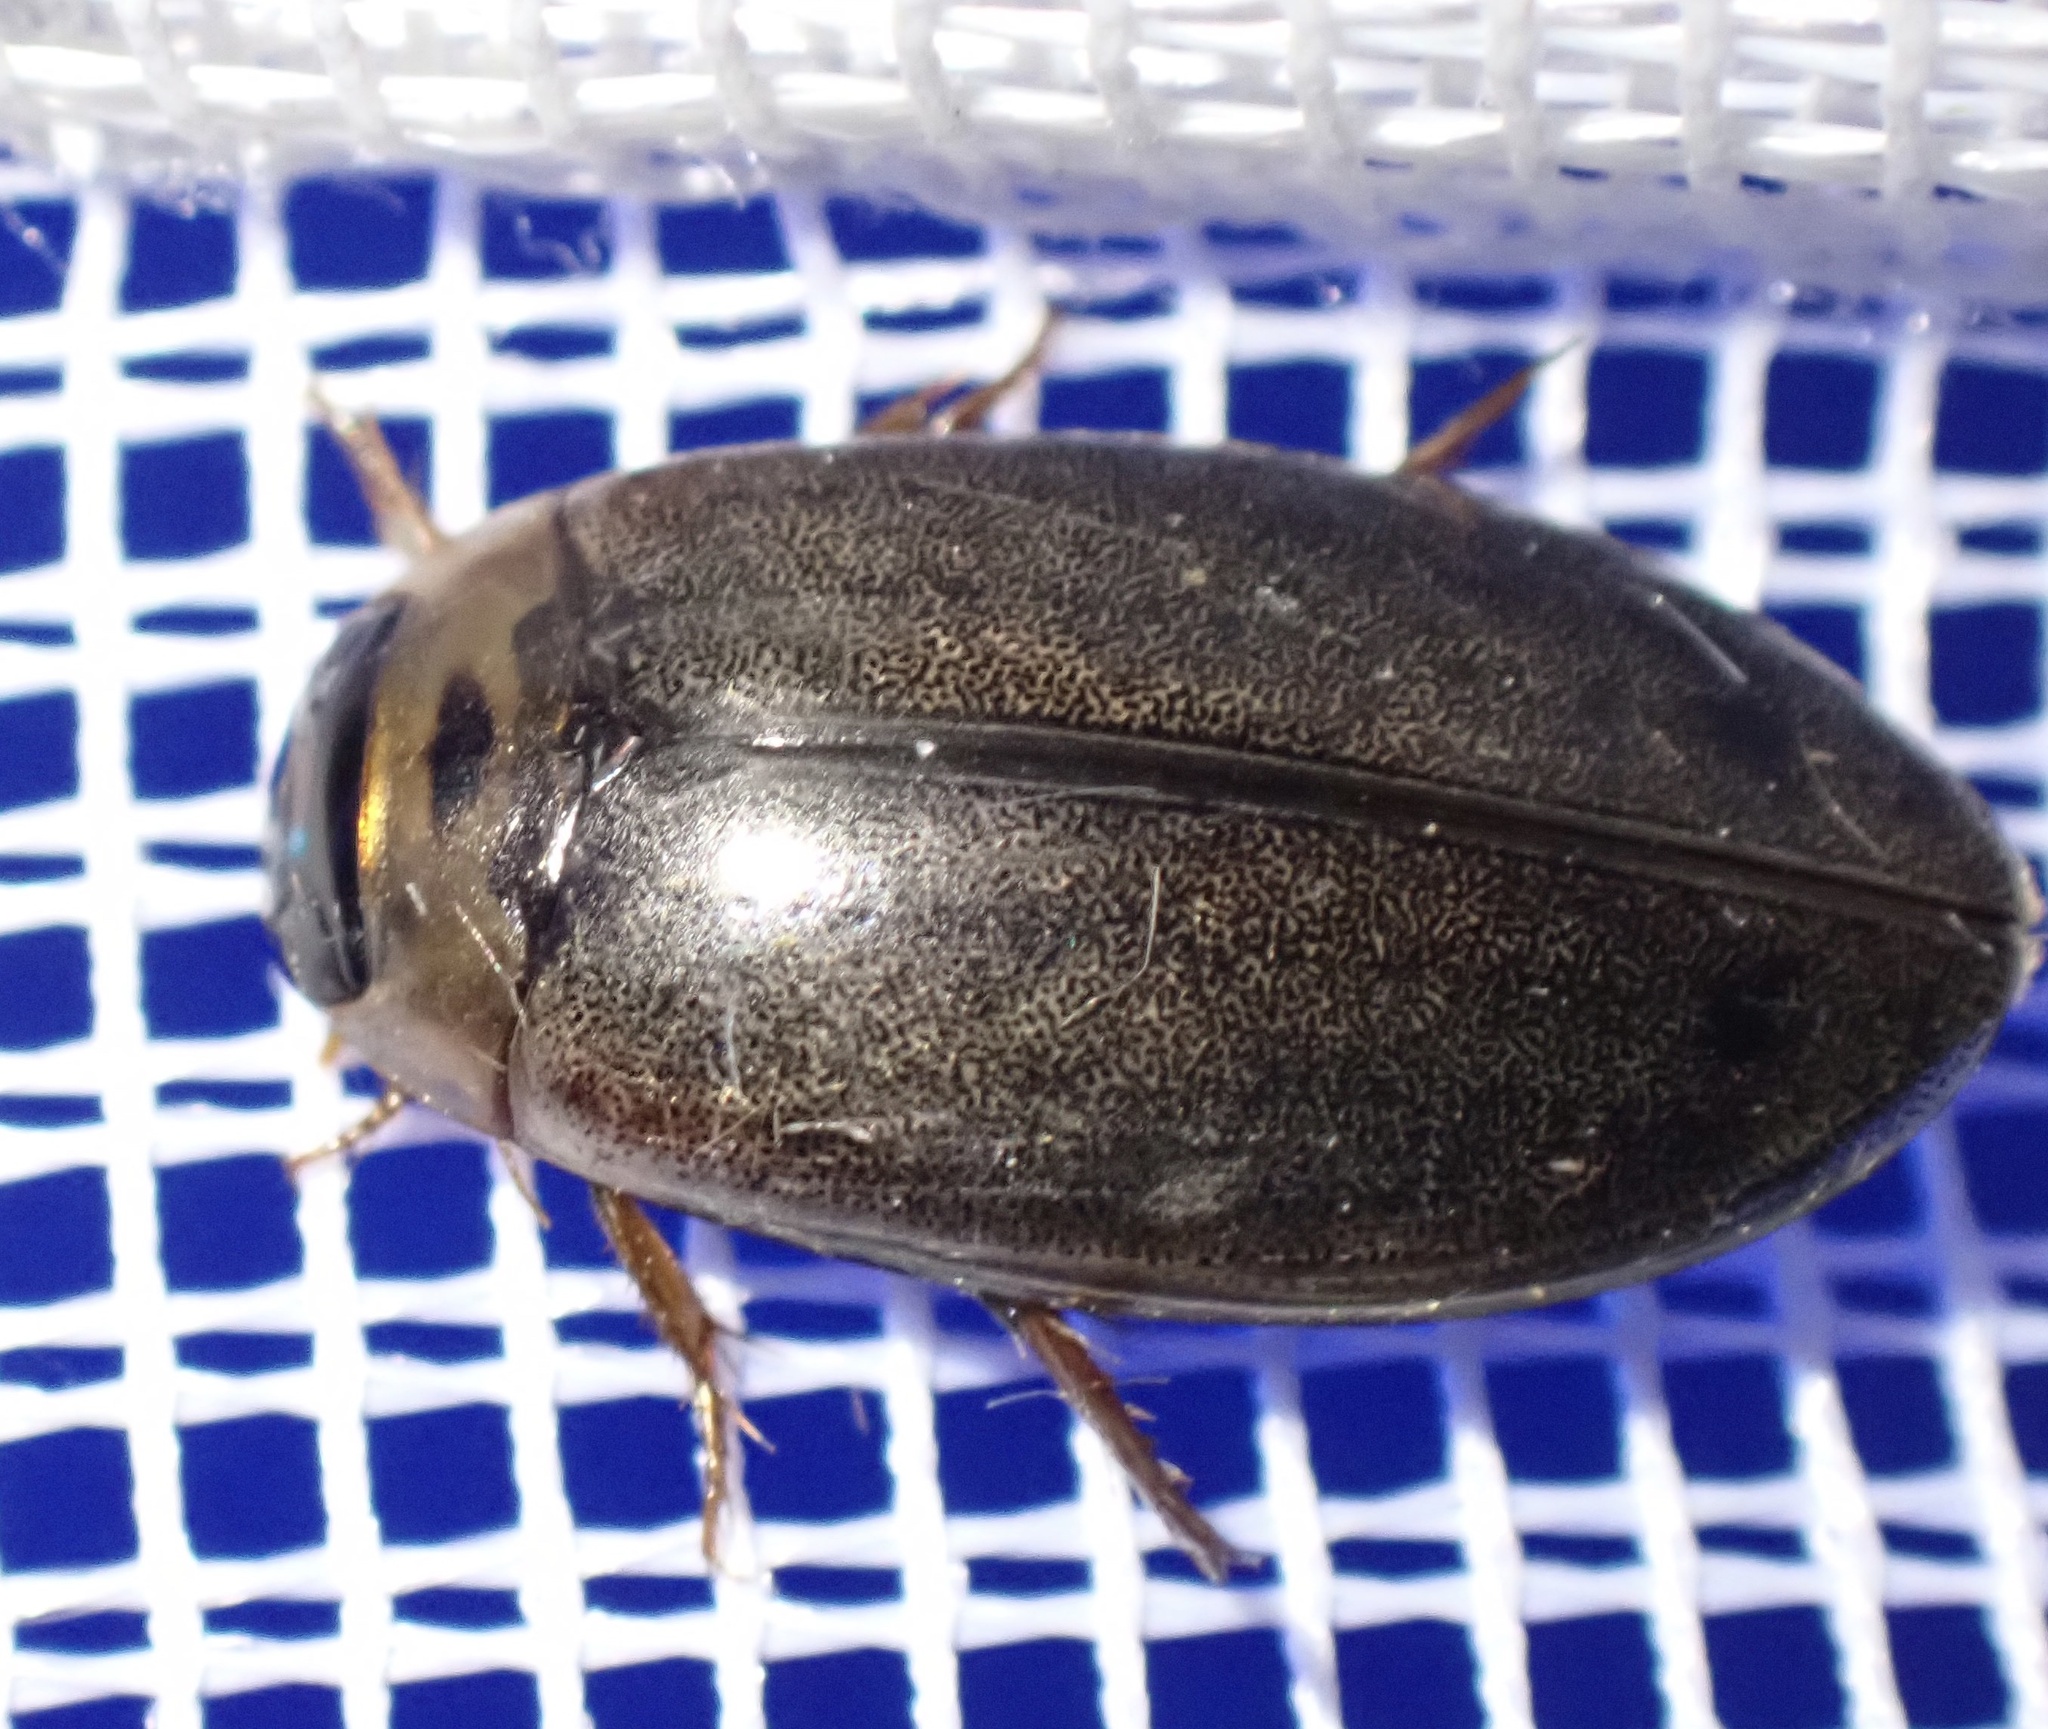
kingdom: Animalia
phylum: Arthropoda
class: Insecta
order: Coleoptera
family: Dytiscidae
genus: Rhantus
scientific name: Rhantus suturalis
